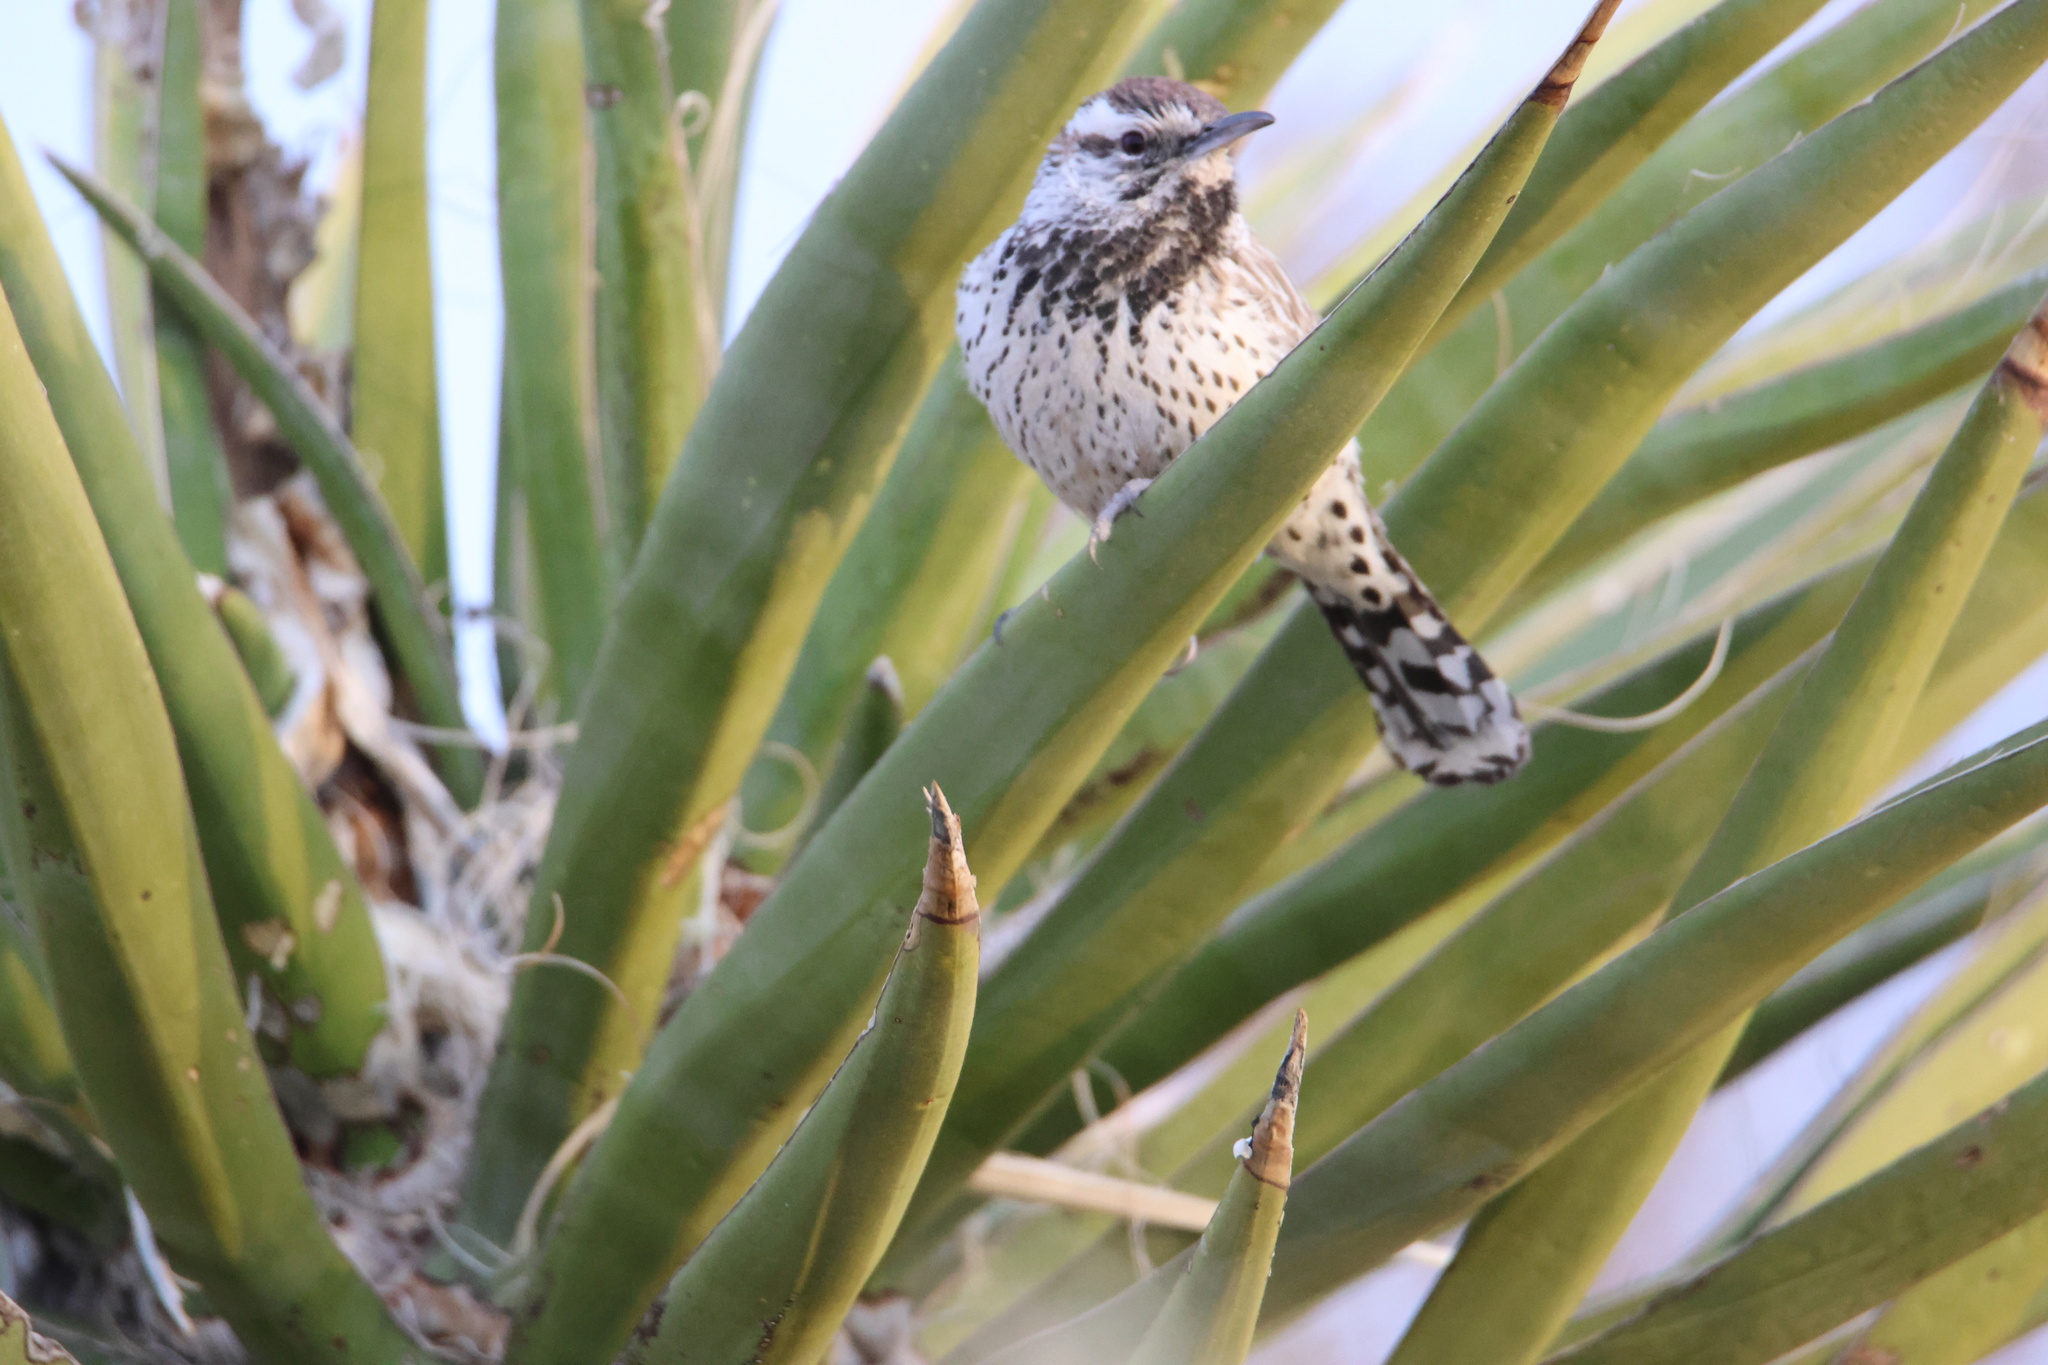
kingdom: Animalia
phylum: Chordata
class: Aves
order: Passeriformes
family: Troglodytidae
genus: Campylorhynchus
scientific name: Campylorhynchus brunneicapillus
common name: Cactus wren
